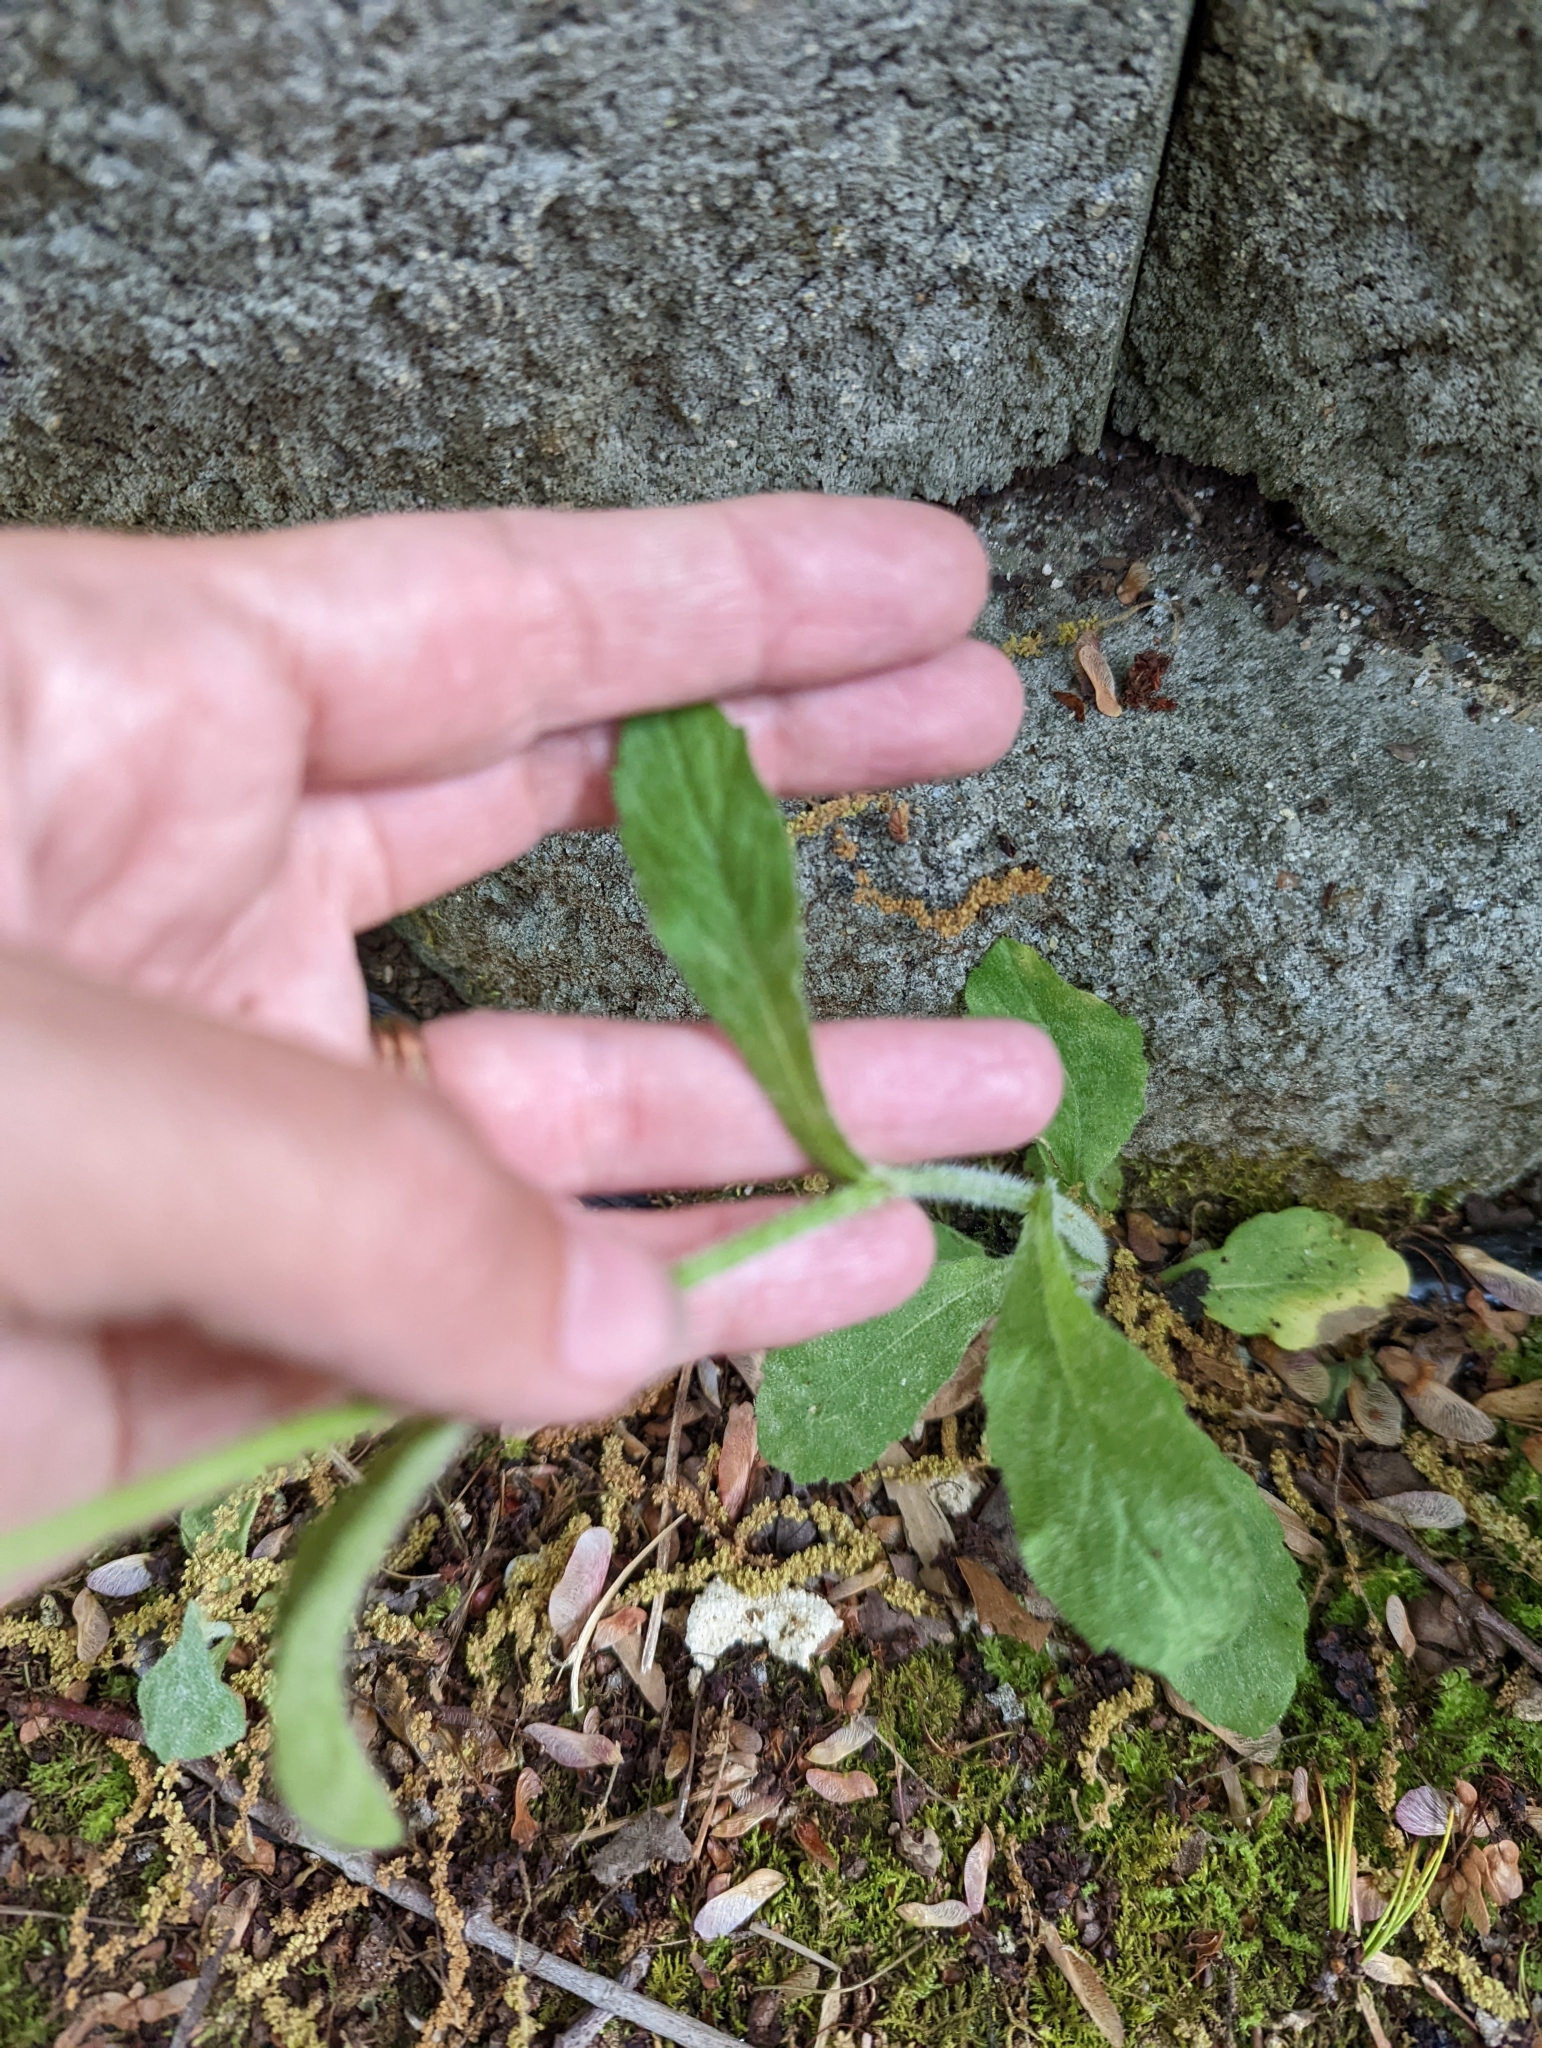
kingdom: Plantae
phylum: Tracheophyta
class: Magnoliopsida
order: Asterales
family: Asteraceae
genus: Erigeron
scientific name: Erigeron philadelphicus
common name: Robin's-plantain
